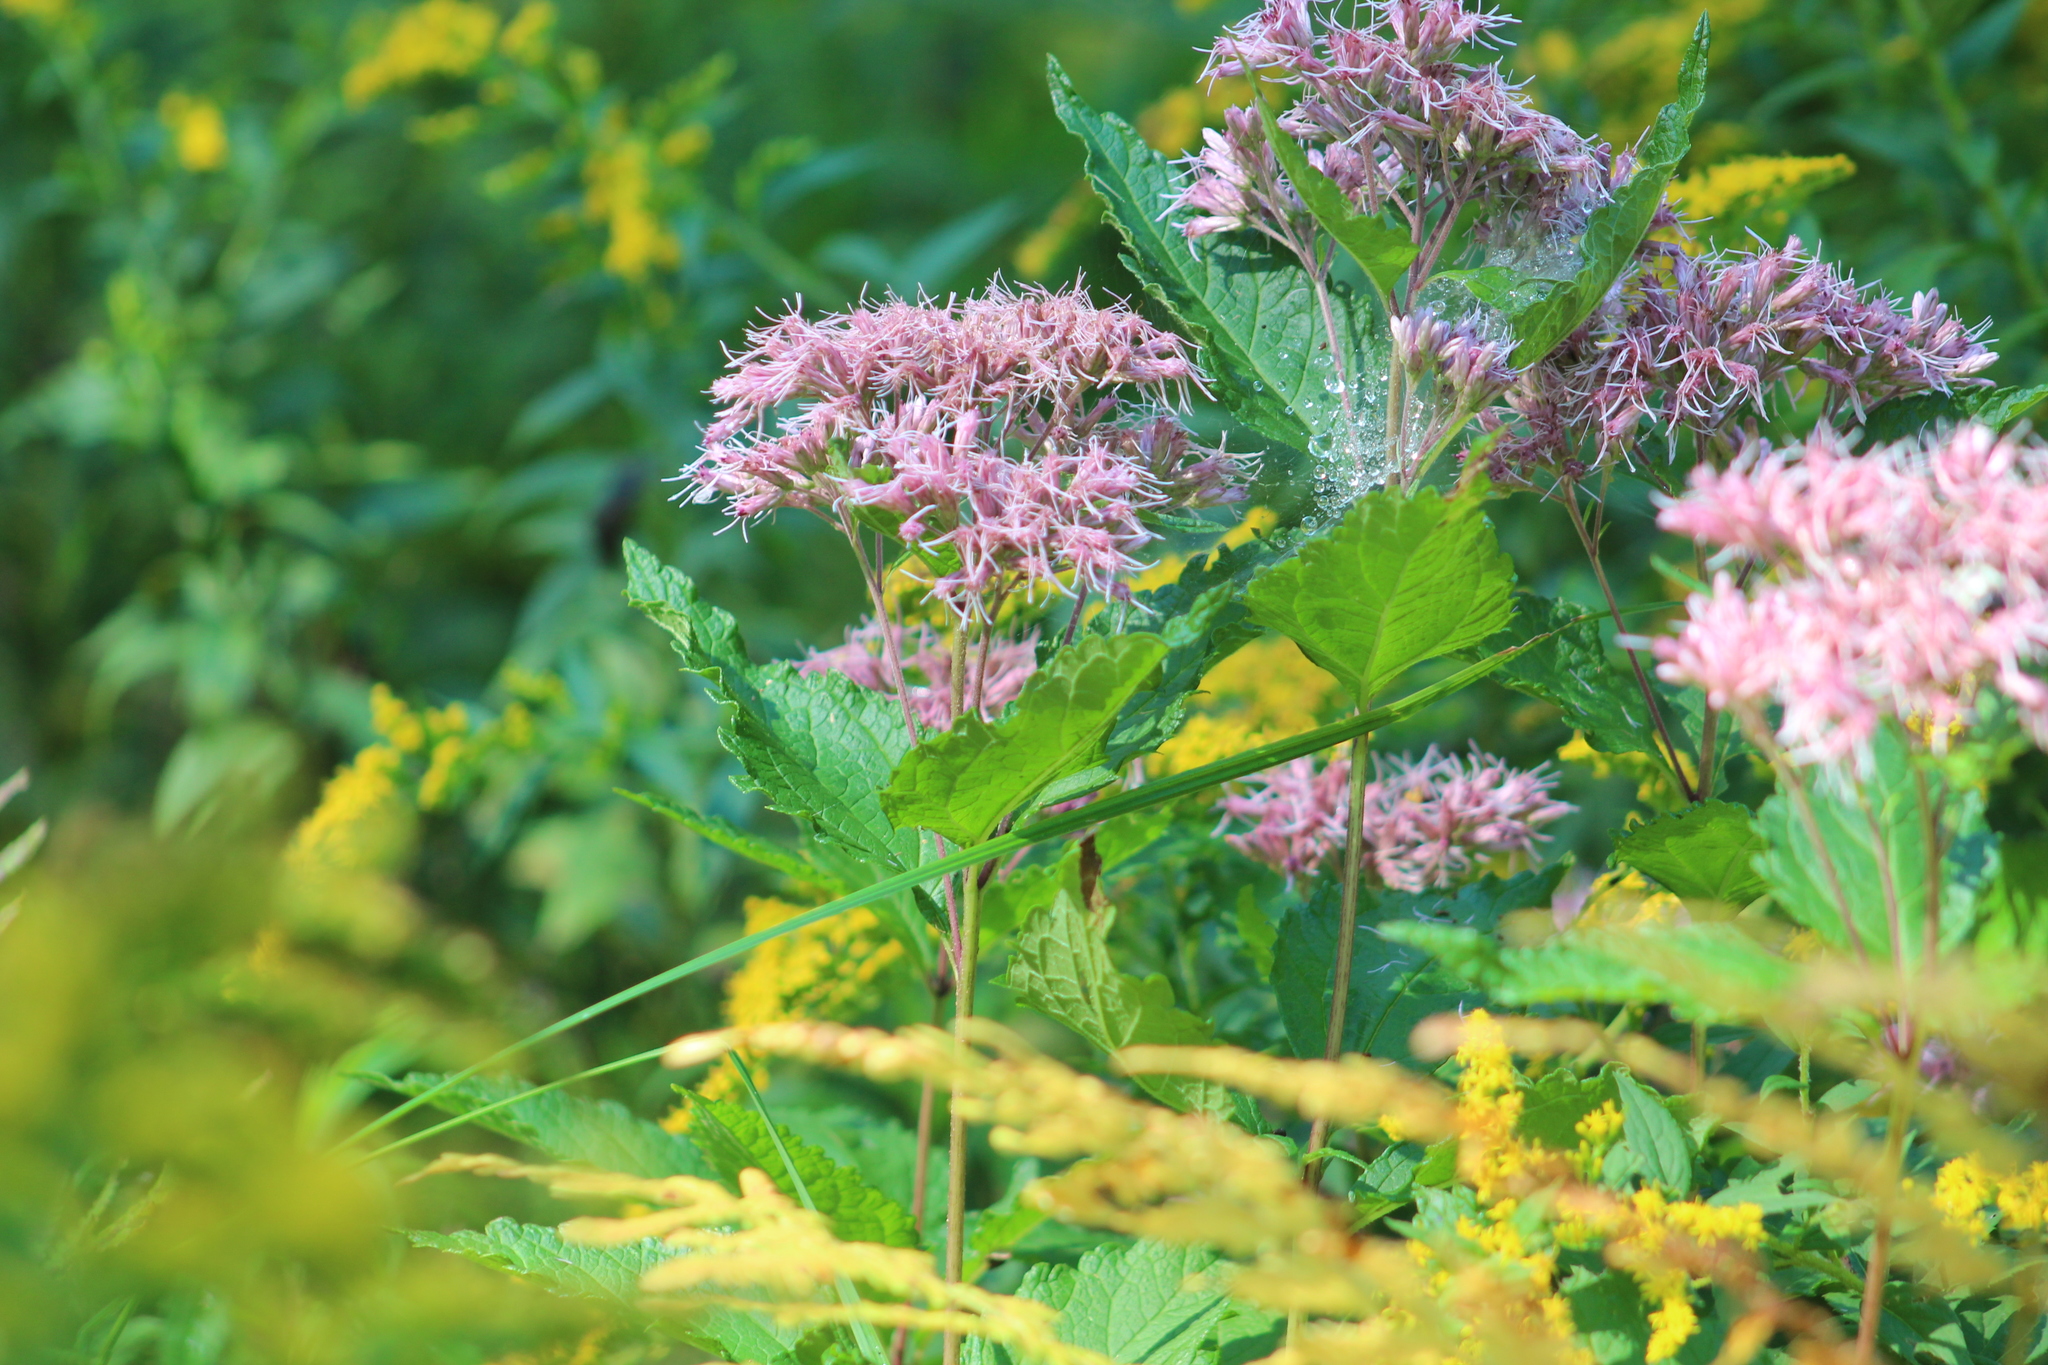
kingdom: Plantae
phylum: Tracheophyta
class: Magnoliopsida
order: Asterales
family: Asteraceae
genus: Eutrochium
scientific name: Eutrochium dubium
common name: Coastal plain joe pye weed
